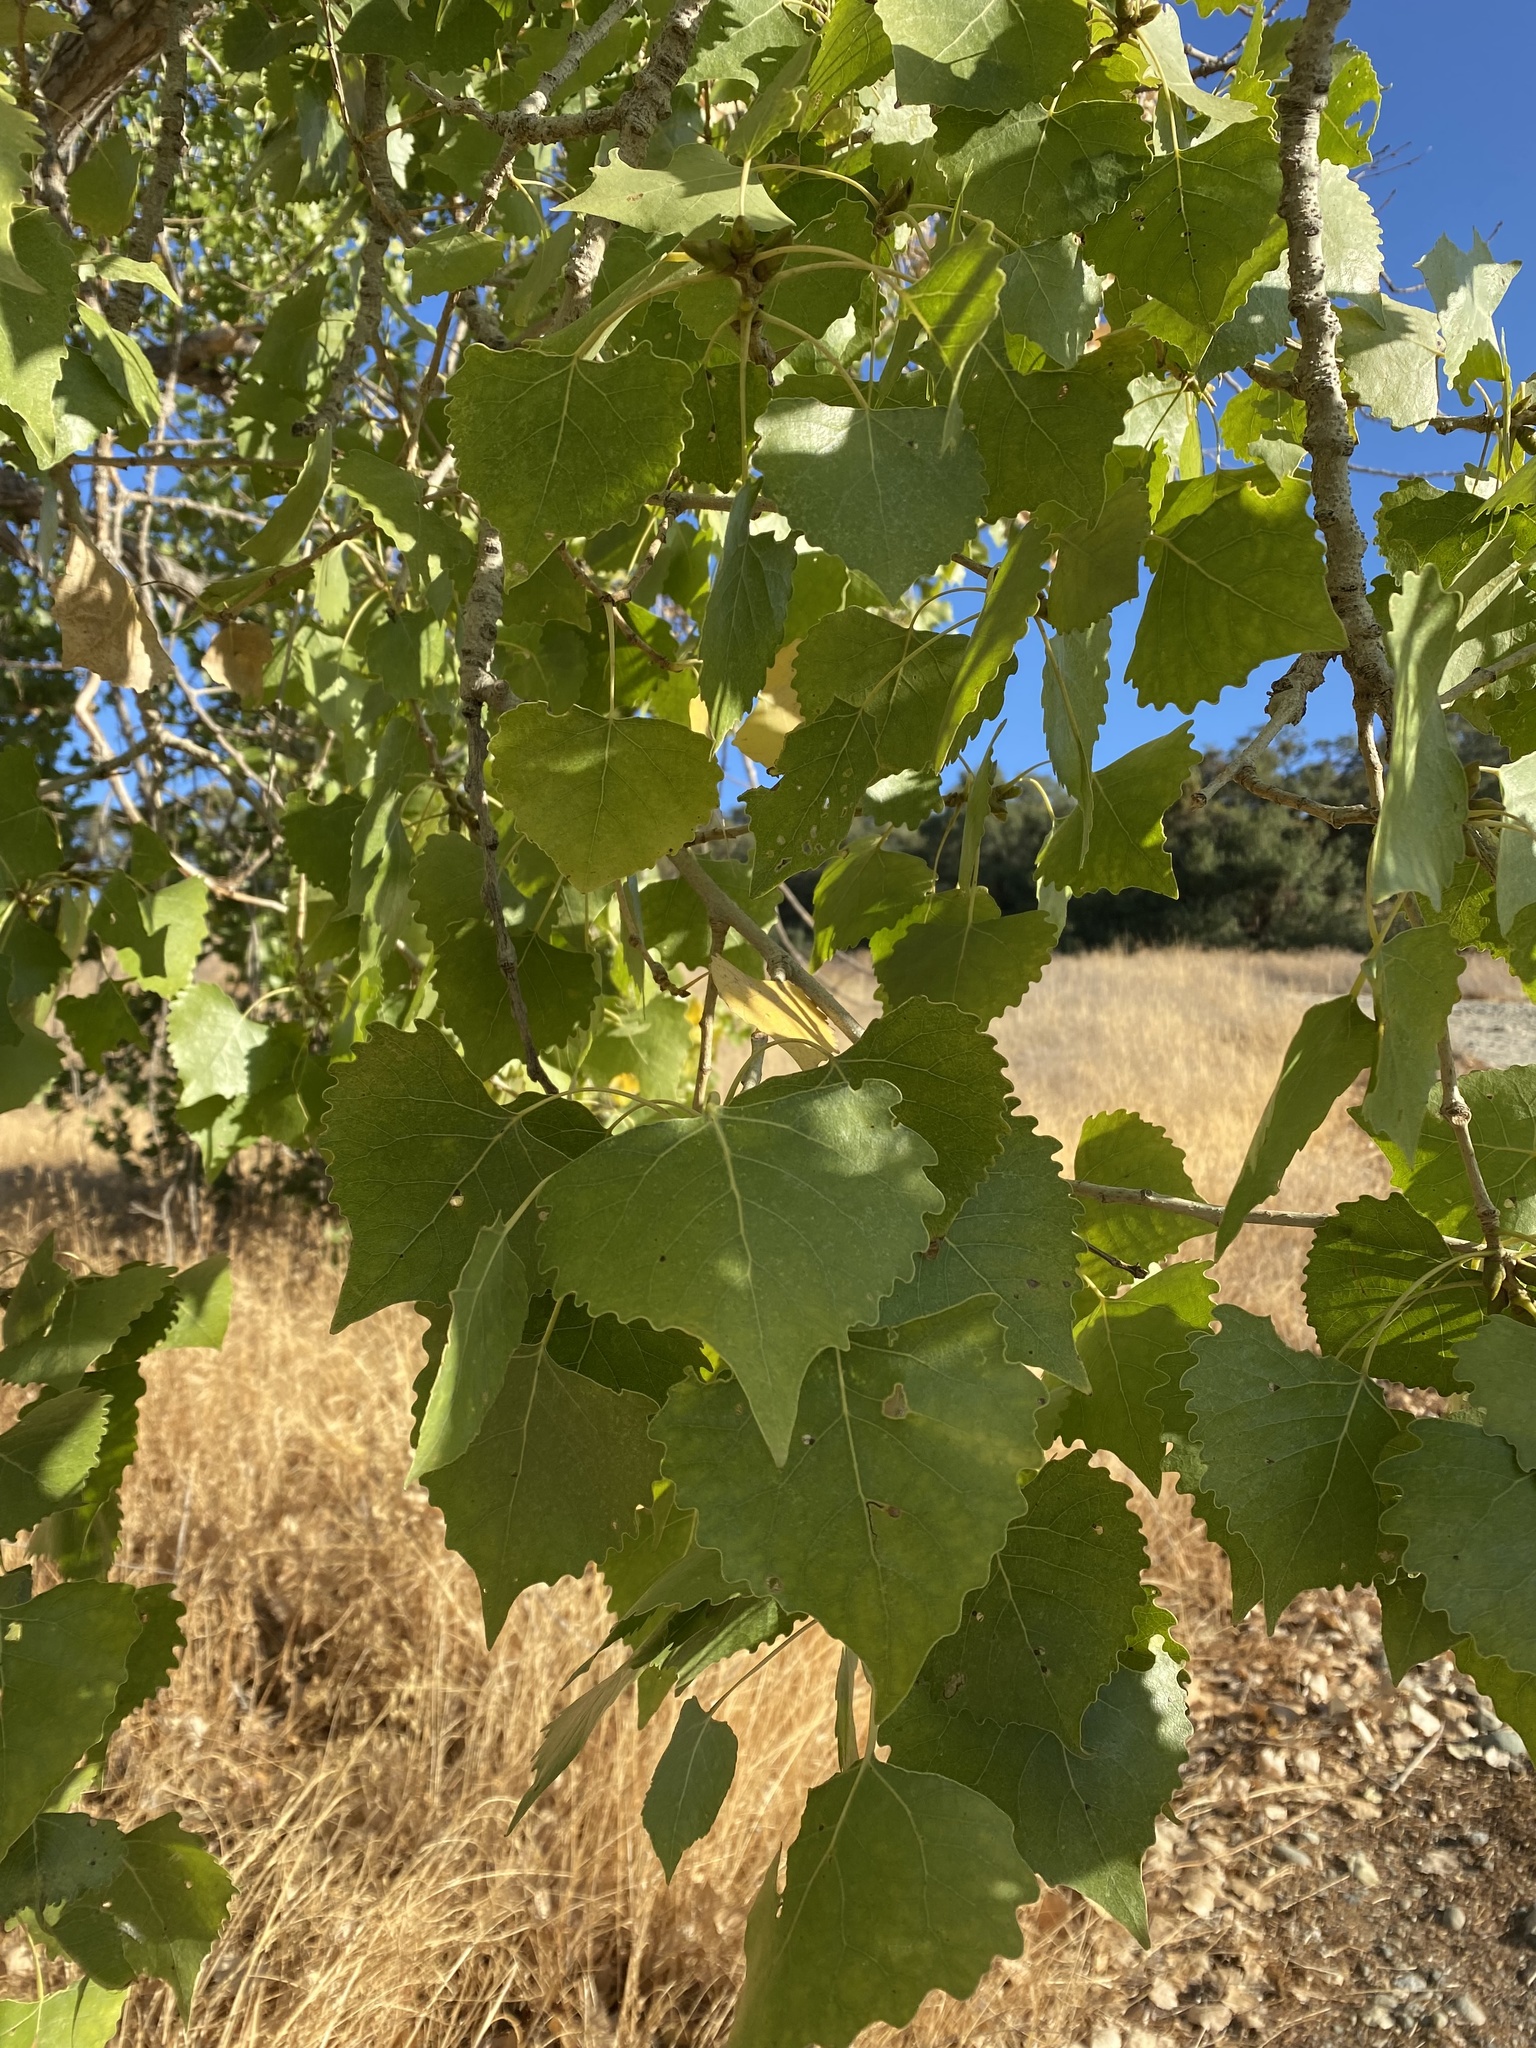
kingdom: Plantae
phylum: Tracheophyta
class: Magnoliopsida
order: Malpighiales
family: Salicaceae
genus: Populus
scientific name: Populus fremontii
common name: Fremont's cottonwood
